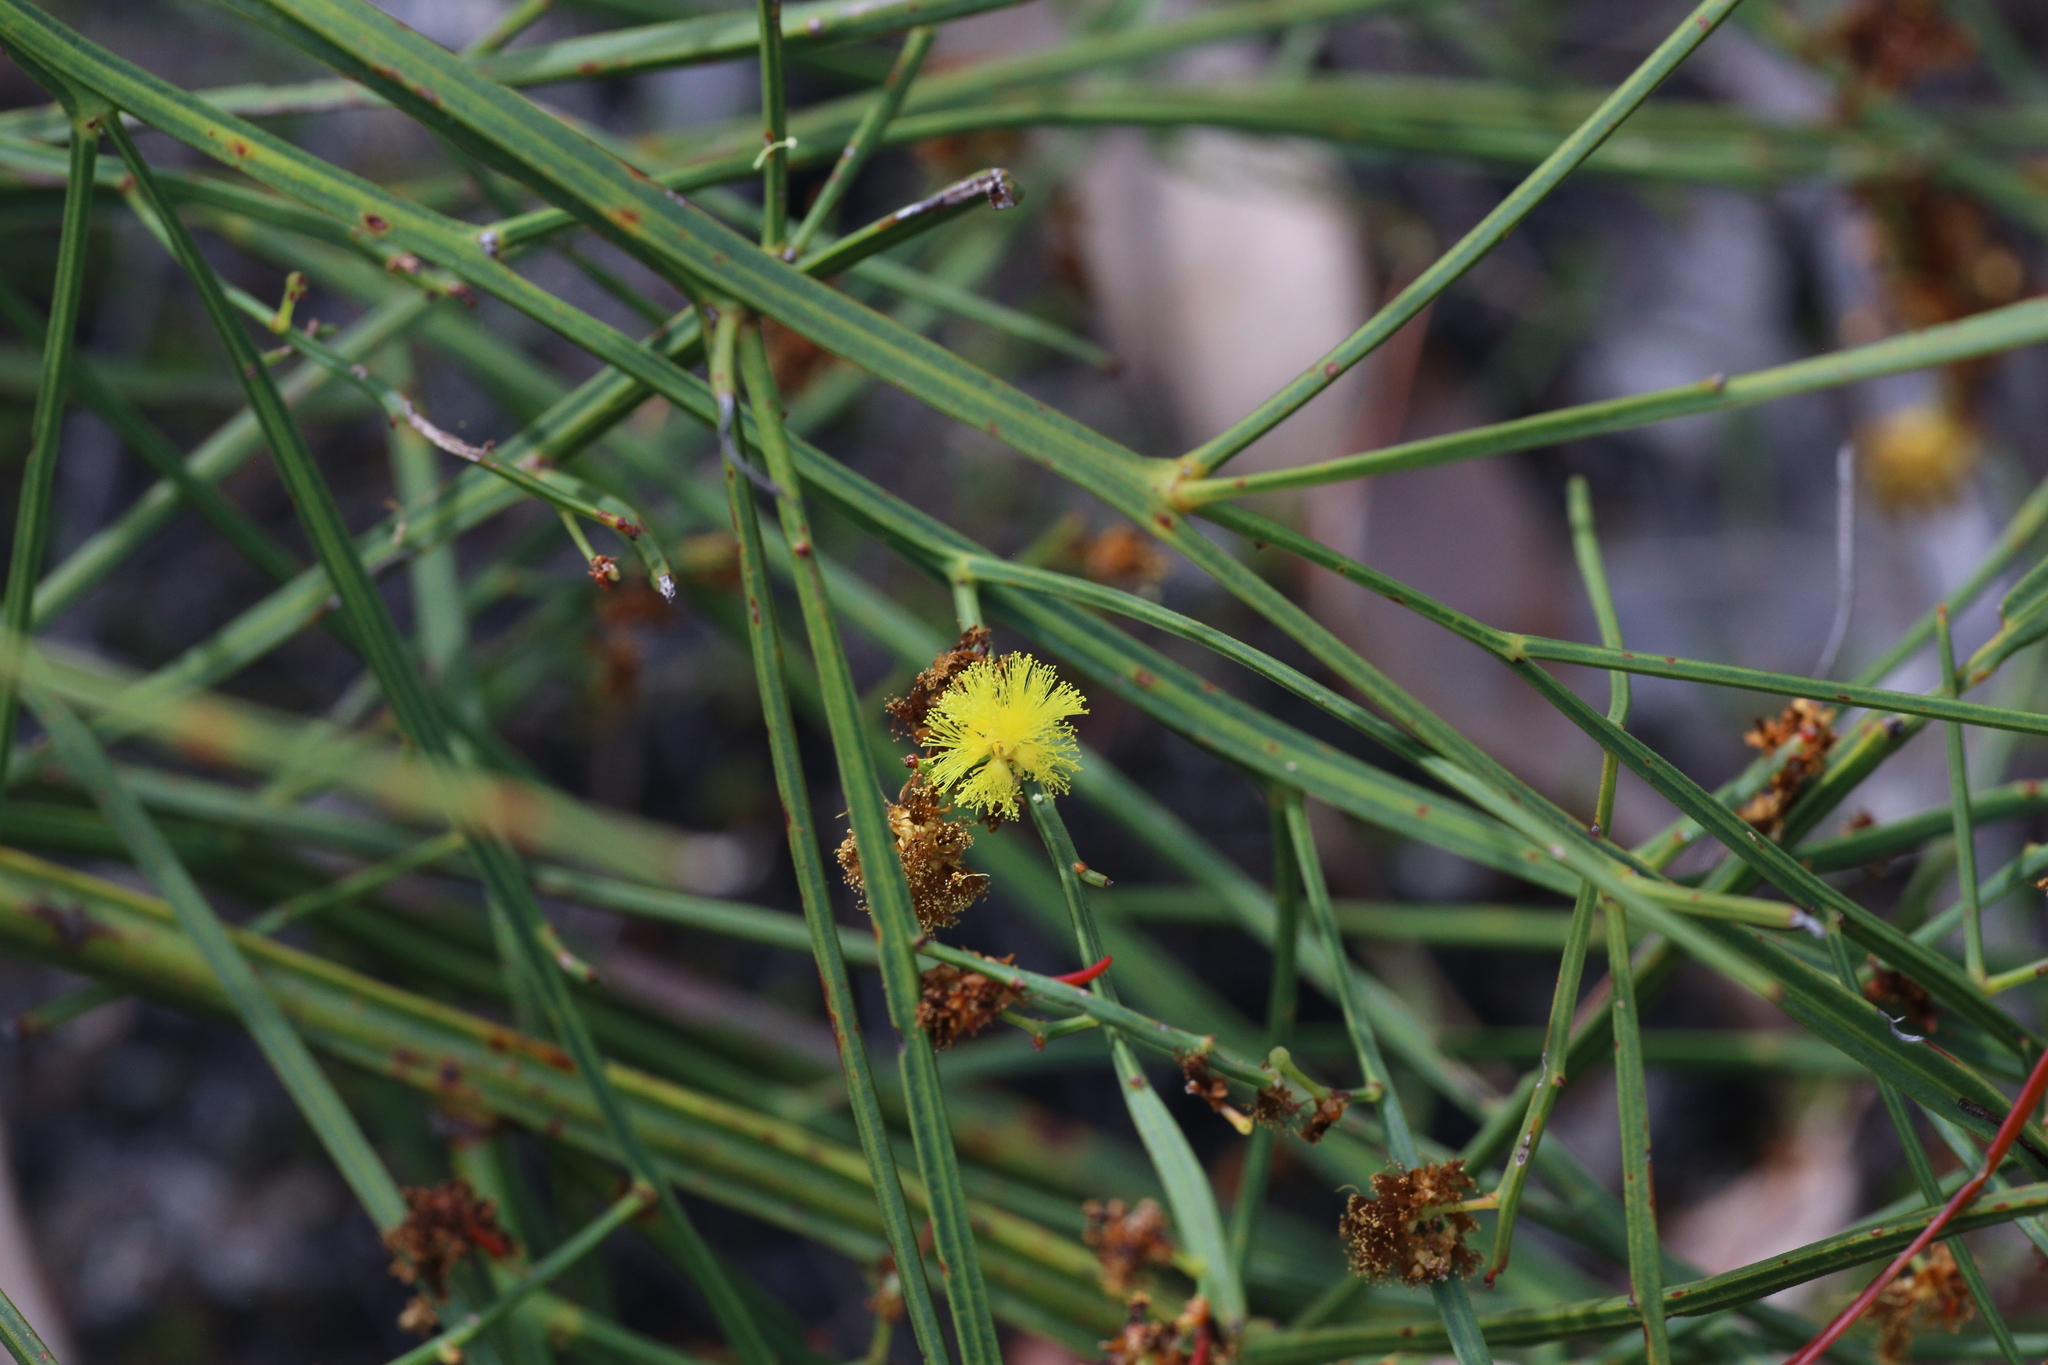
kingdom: Plantae
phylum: Tracheophyta
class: Magnoliopsida
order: Fabales
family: Fabaceae
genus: Acacia
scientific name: Acacia extensa
